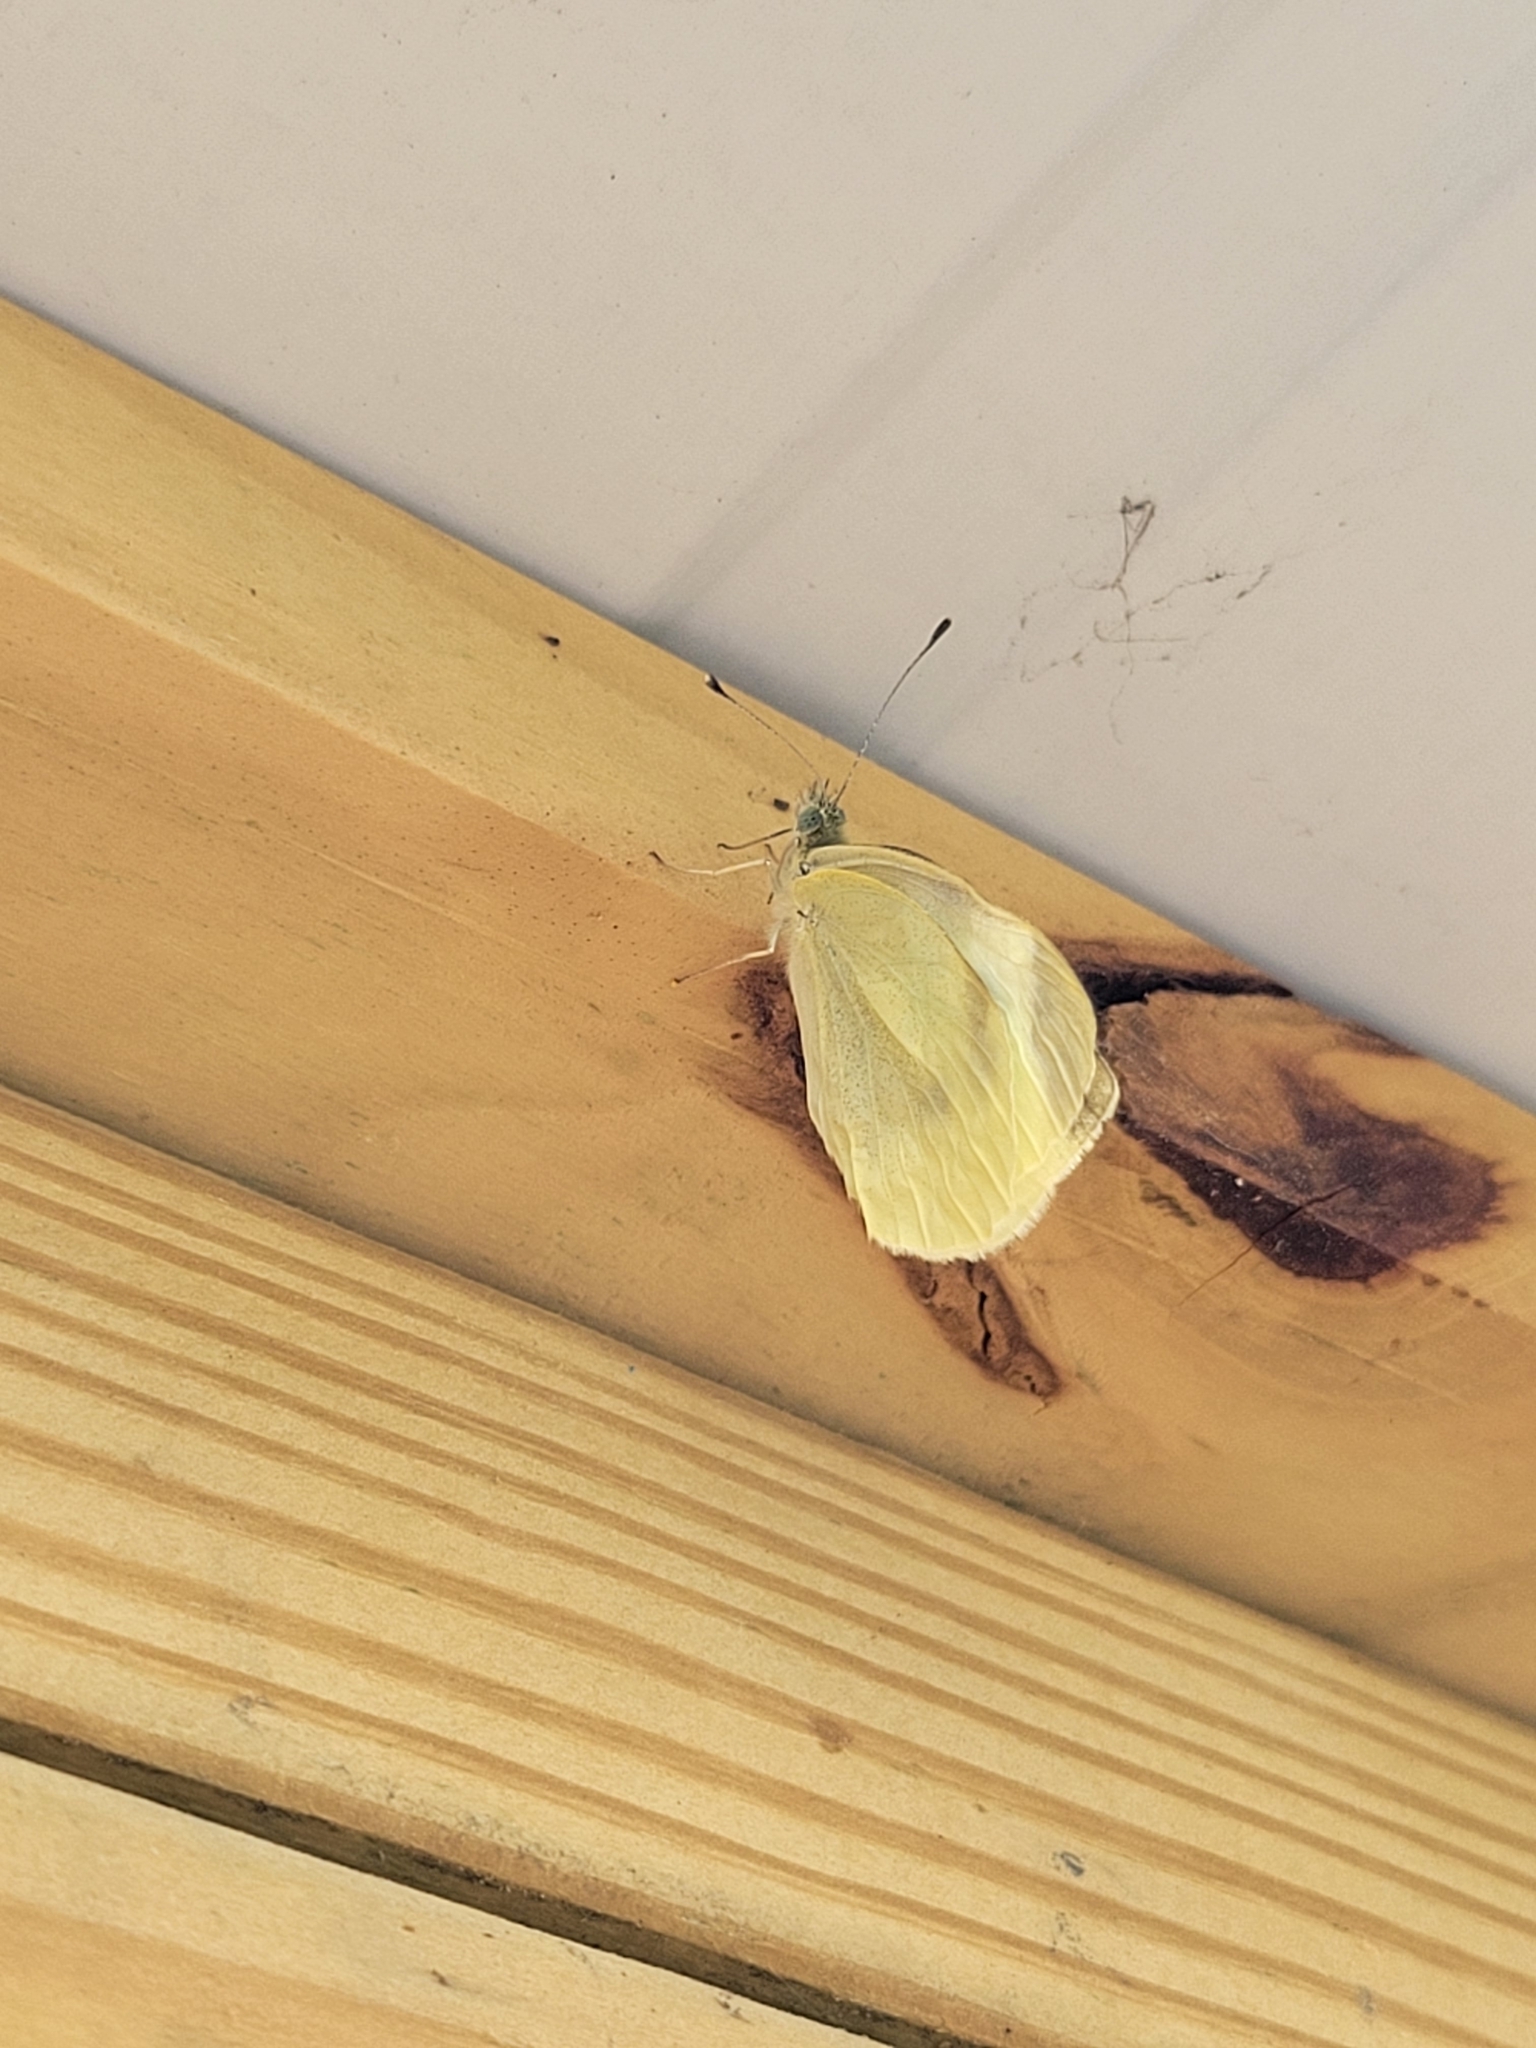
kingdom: Animalia
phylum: Arthropoda
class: Insecta
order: Lepidoptera
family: Pieridae
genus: Pieris
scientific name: Pieris rapae
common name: Small white
